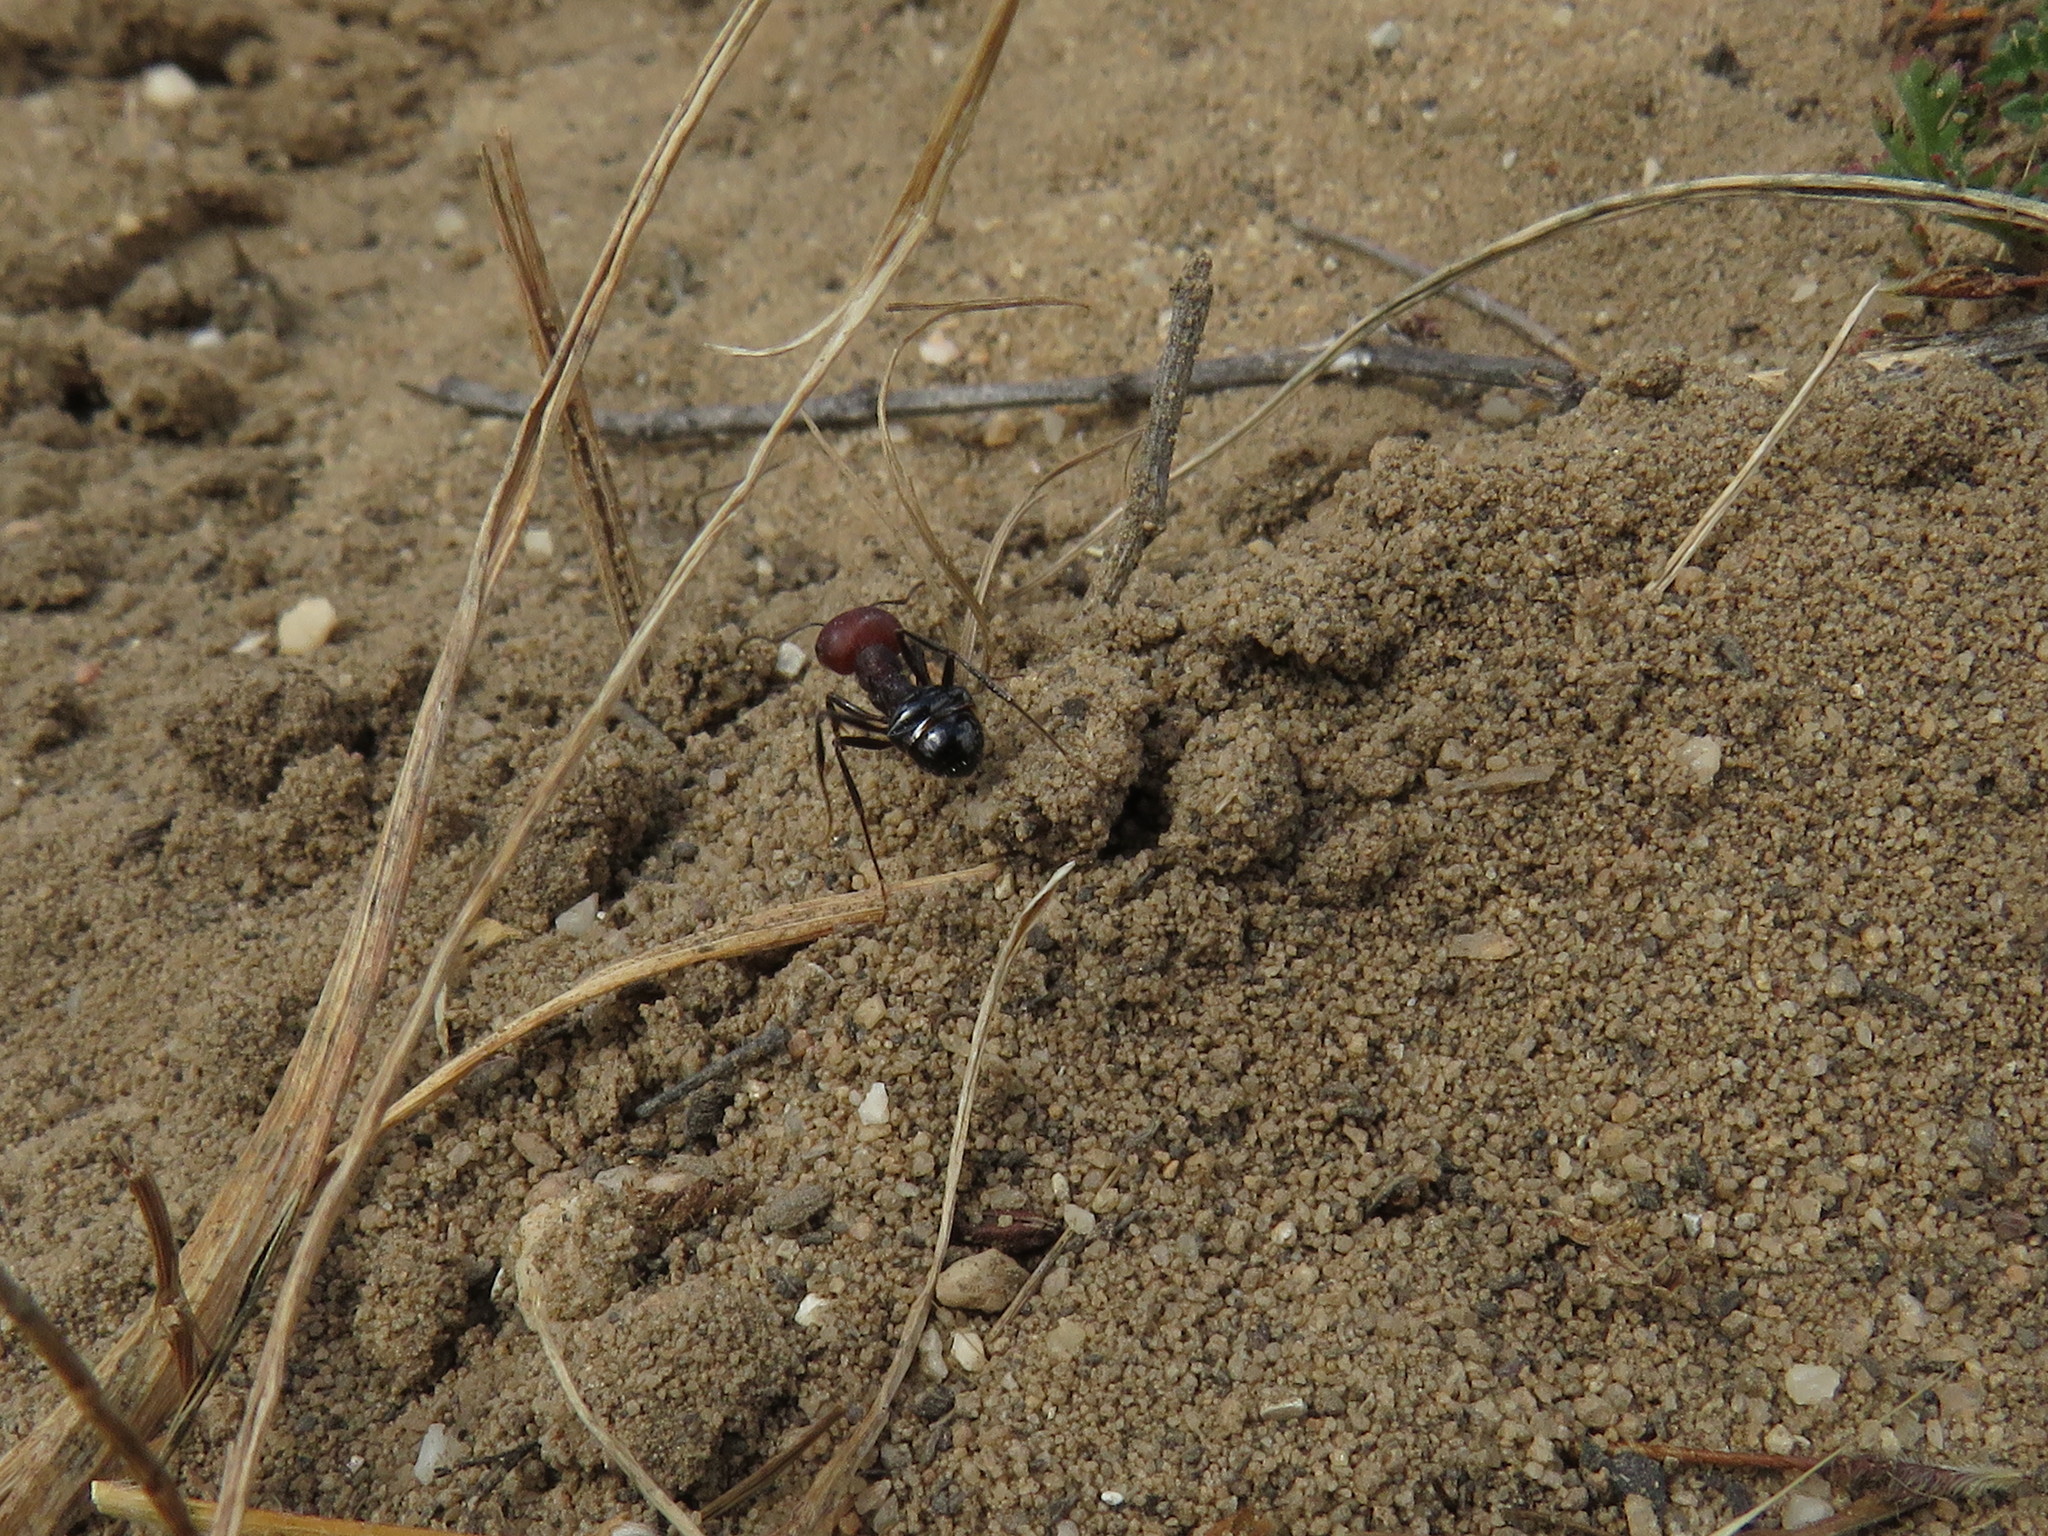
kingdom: Animalia
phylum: Arthropoda
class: Insecta
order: Hymenoptera
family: Formicidae
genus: Messor
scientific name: Messor capensis
